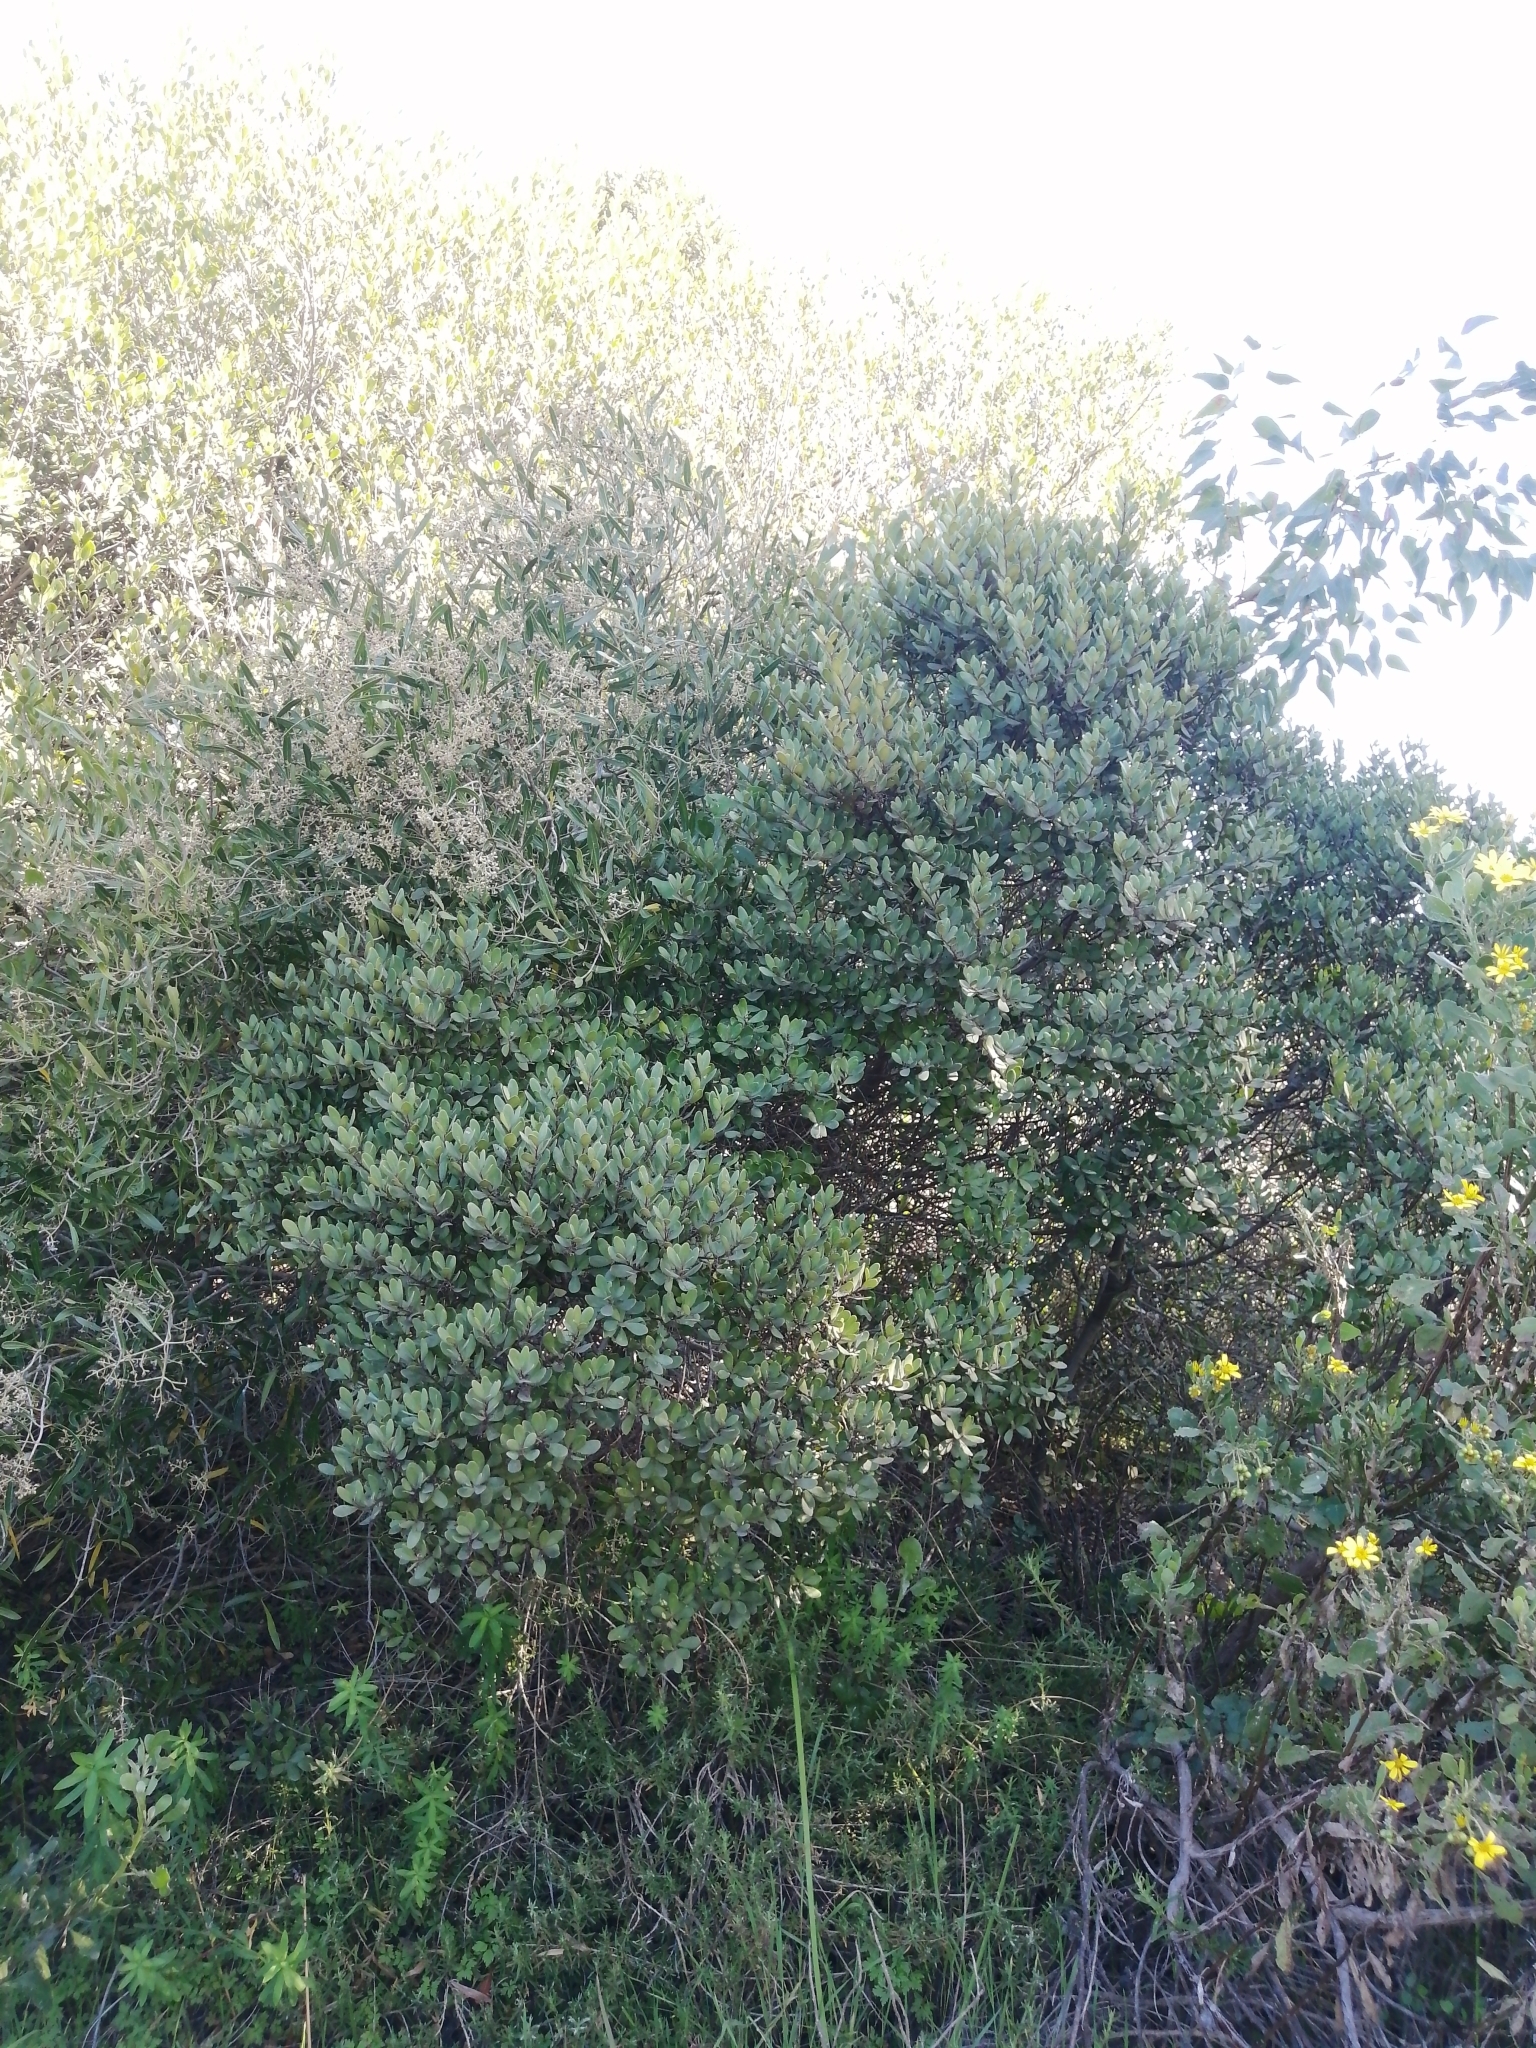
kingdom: Plantae
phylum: Tracheophyta
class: Magnoliopsida
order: Ericales
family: Ebenaceae
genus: Euclea
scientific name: Euclea racemosa
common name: Dune guarri
